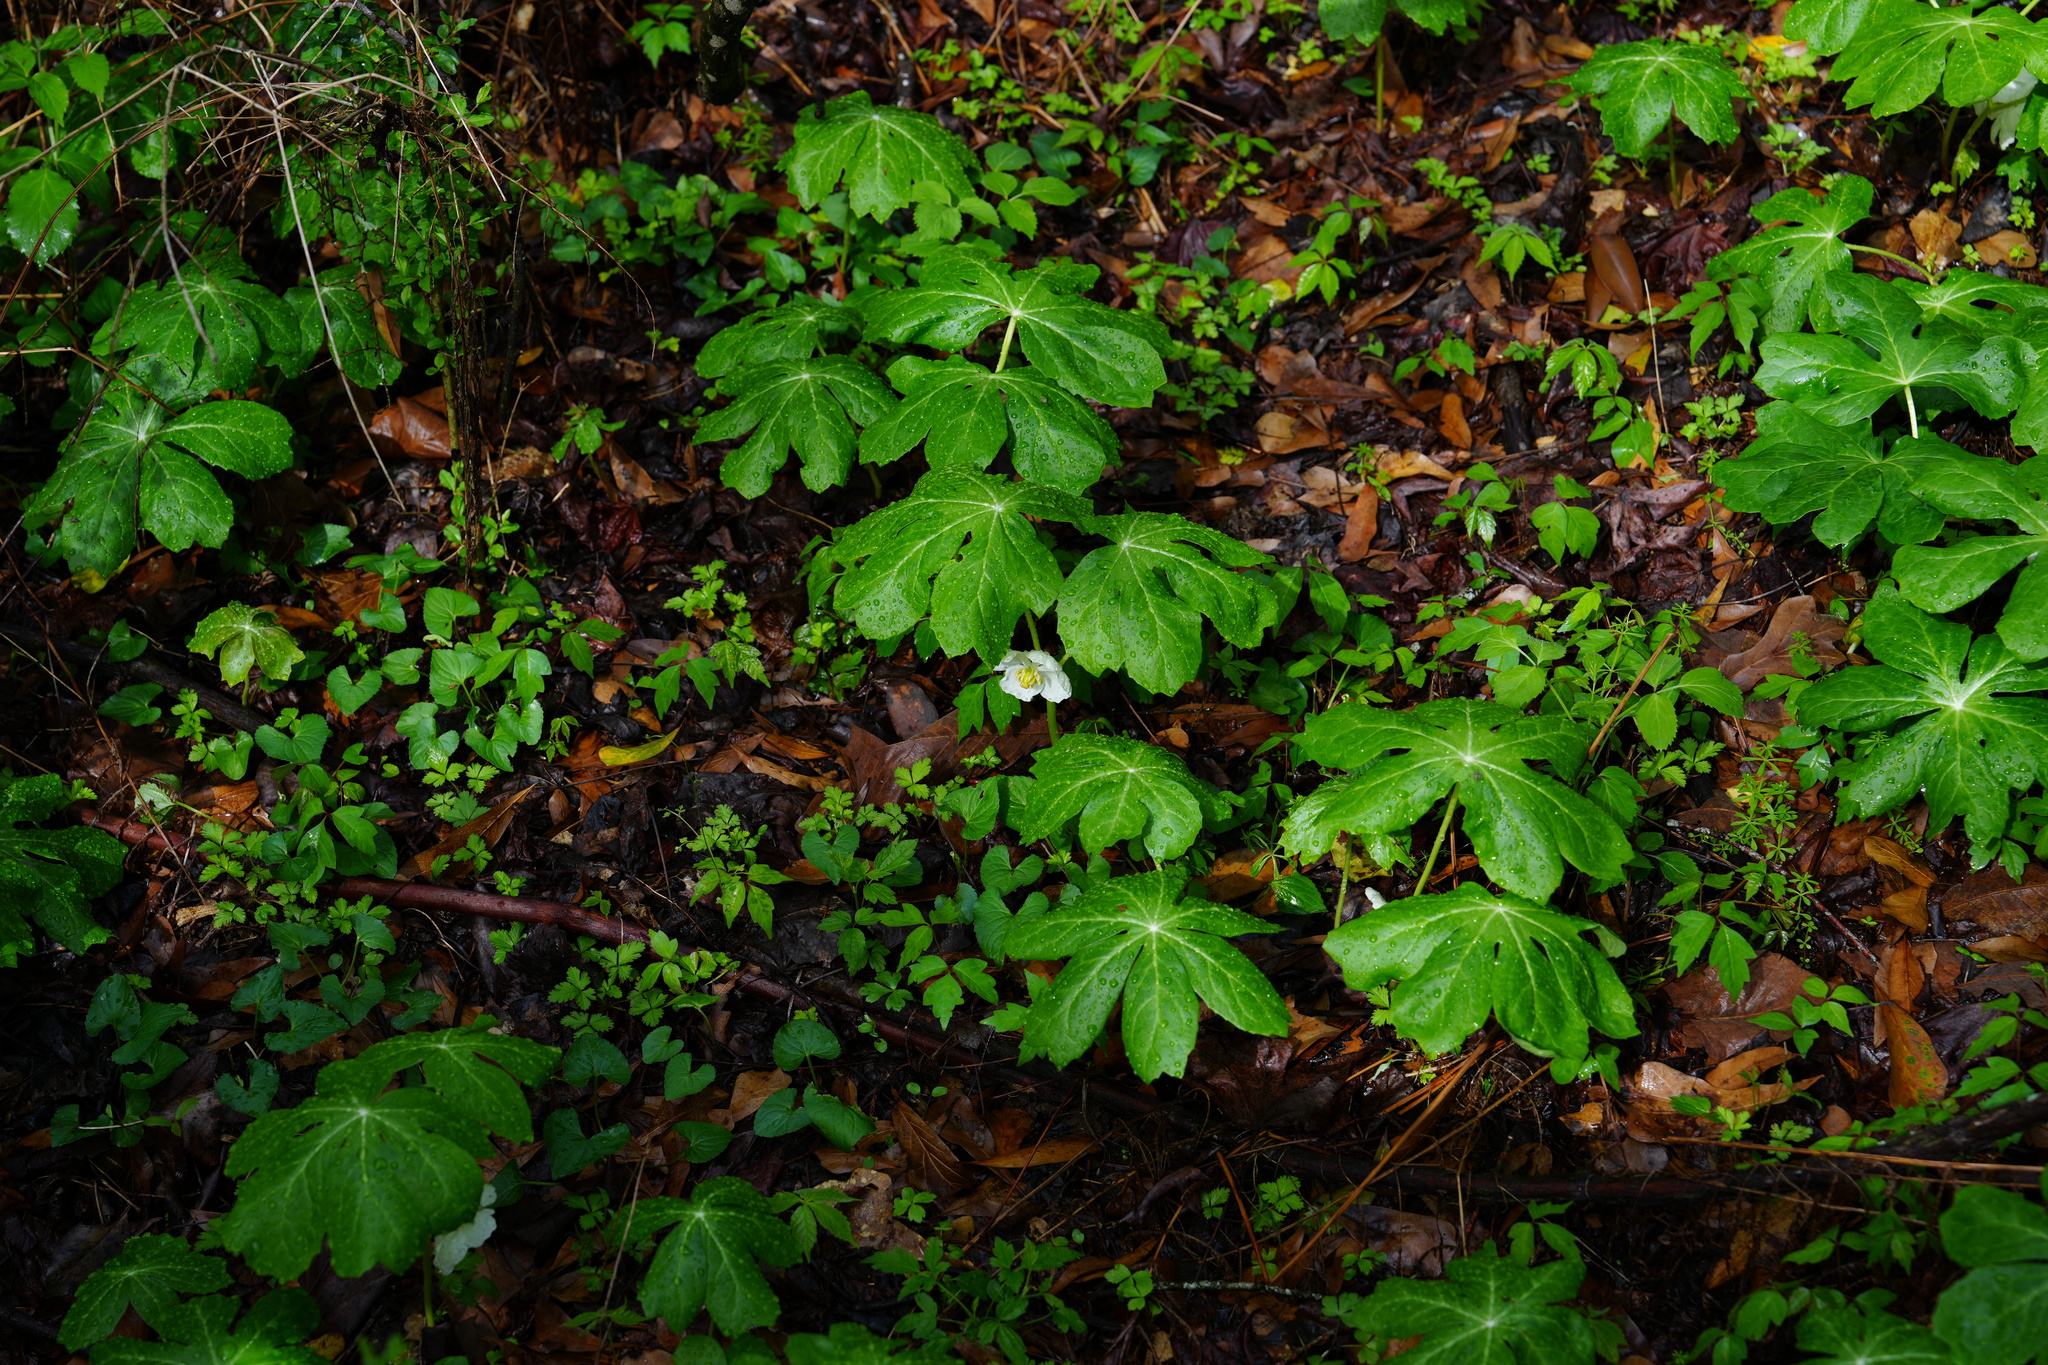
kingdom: Plantae
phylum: Tracheophyta
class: Magnoliopsida
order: Ranunculales
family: Berberidaceae
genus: Podophyllum
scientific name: Podophyllum peltatum
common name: Wild mandrake
